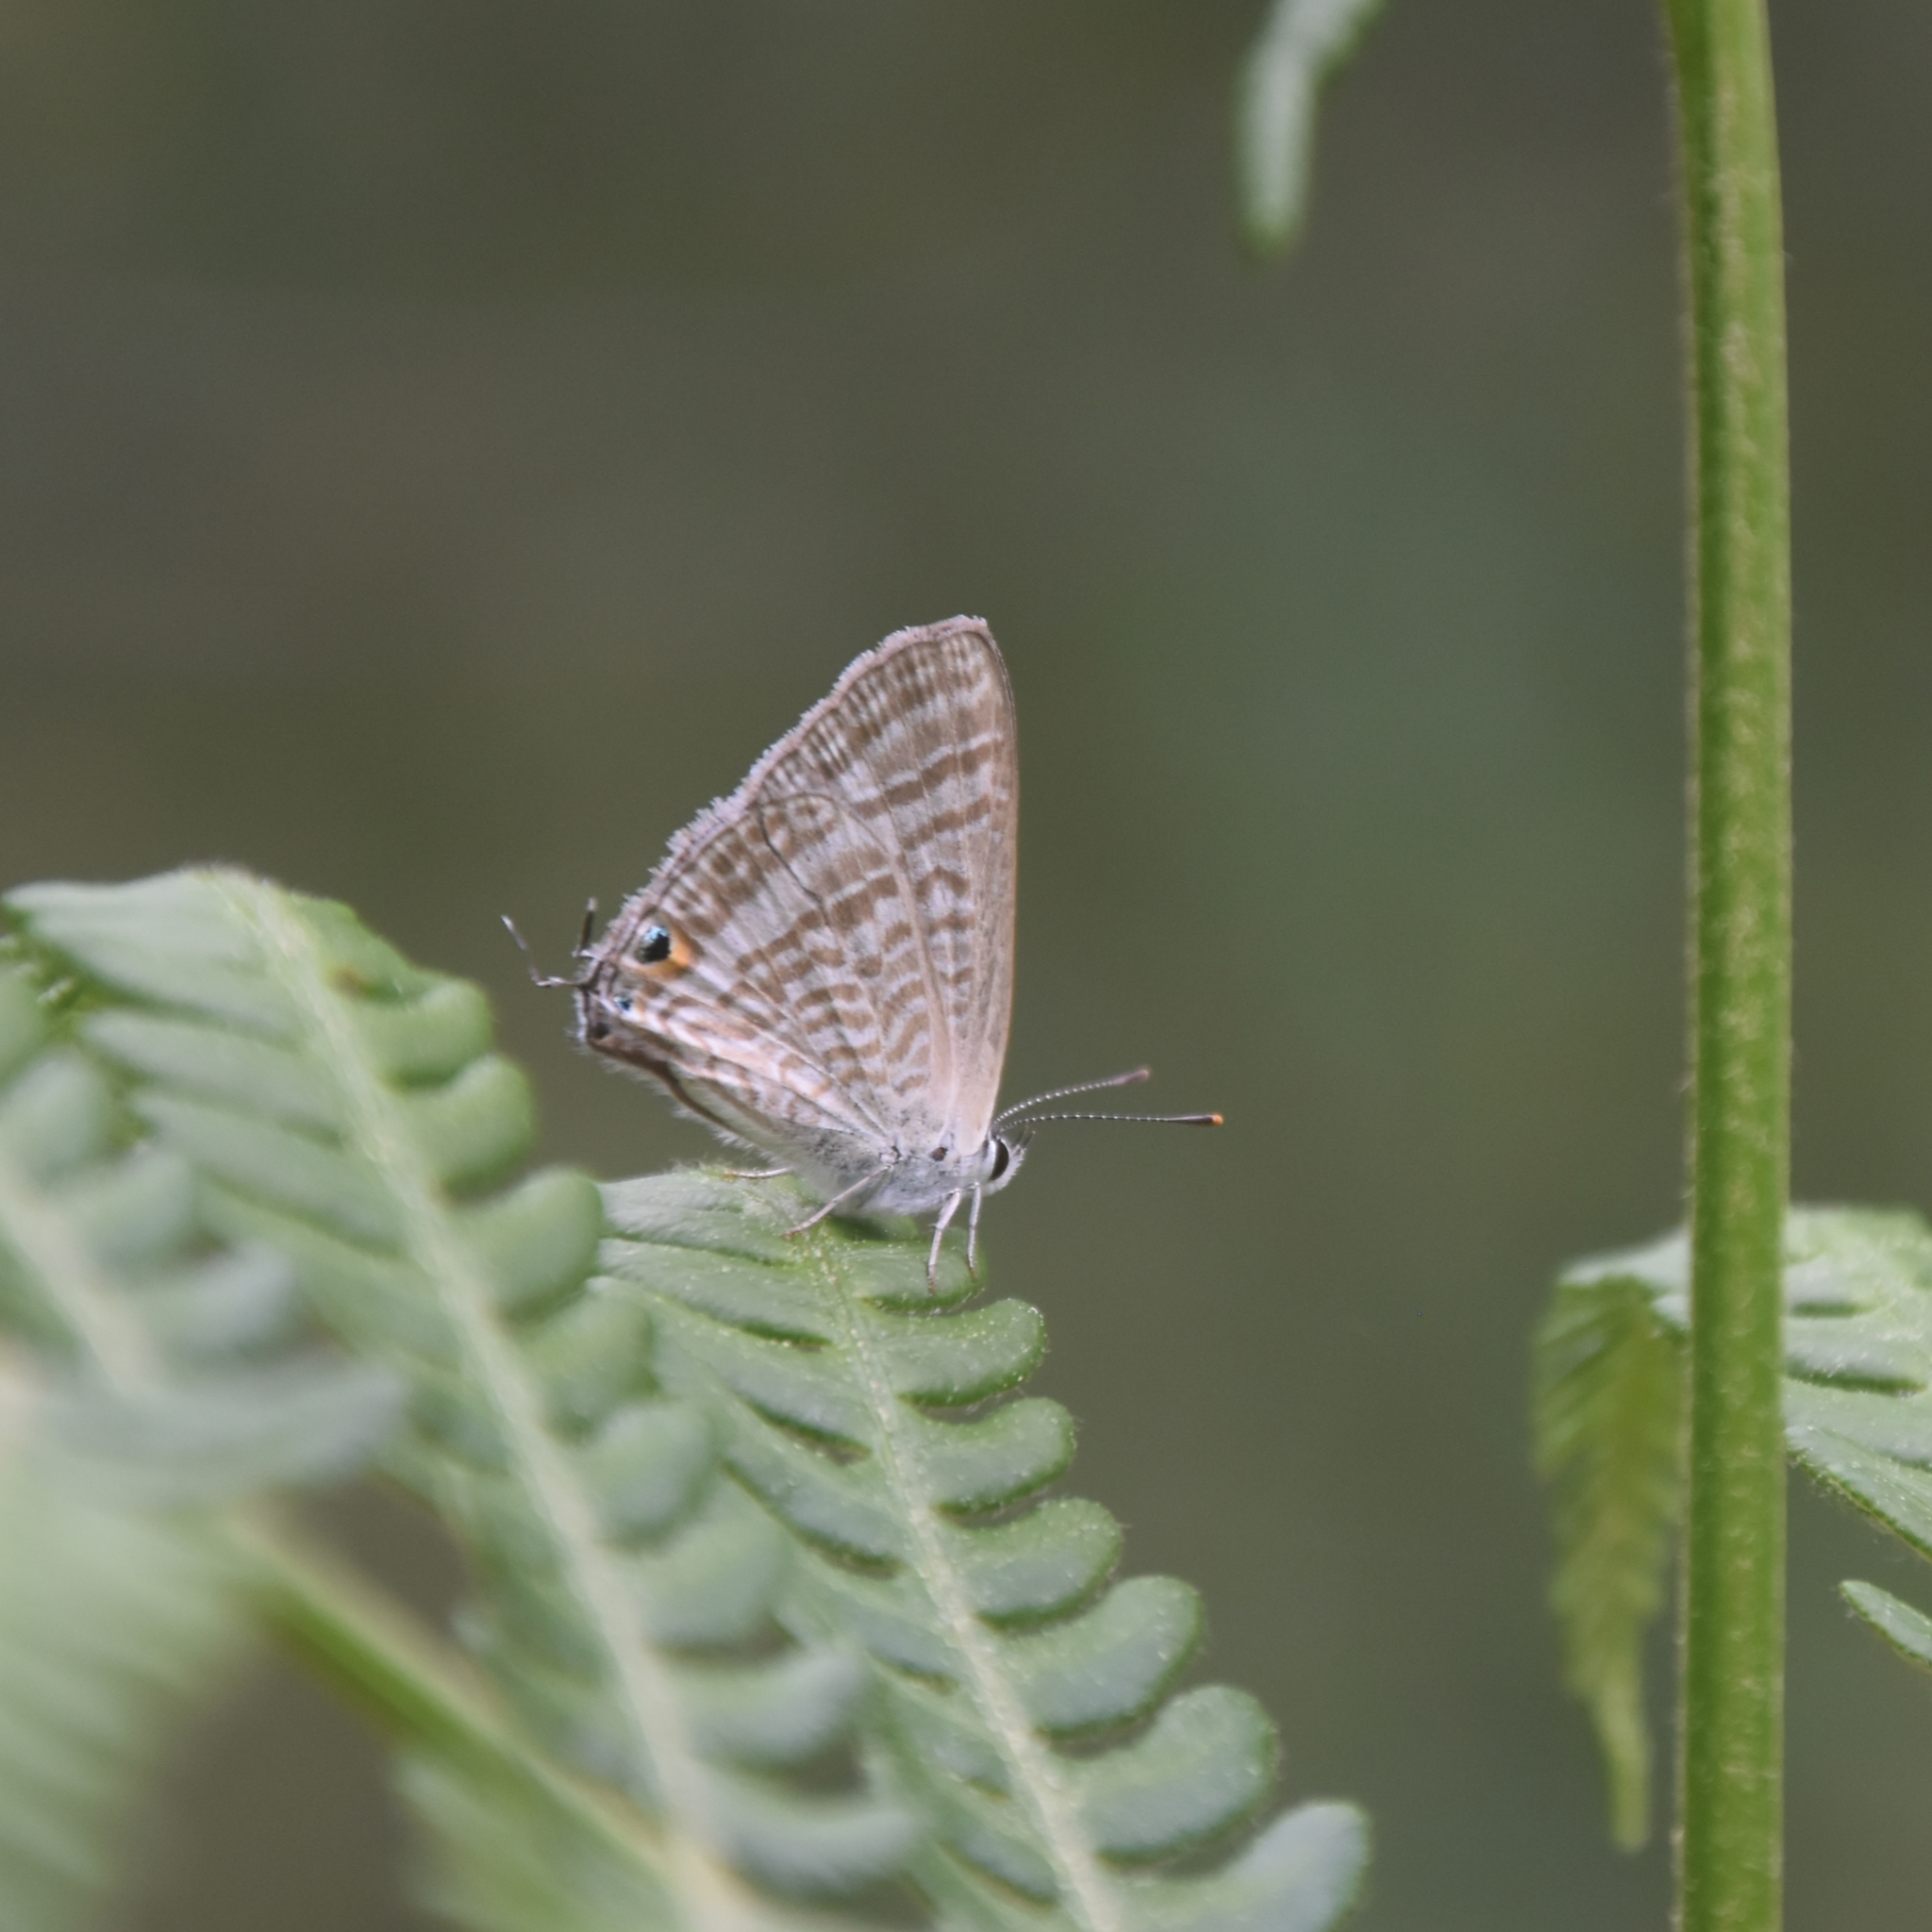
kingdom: Animalia
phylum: Arthropoda
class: Insecta
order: Lepidoptera
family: Lycaenidae
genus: Lampides
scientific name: Lampides boeticus
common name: Long-tailed blue
